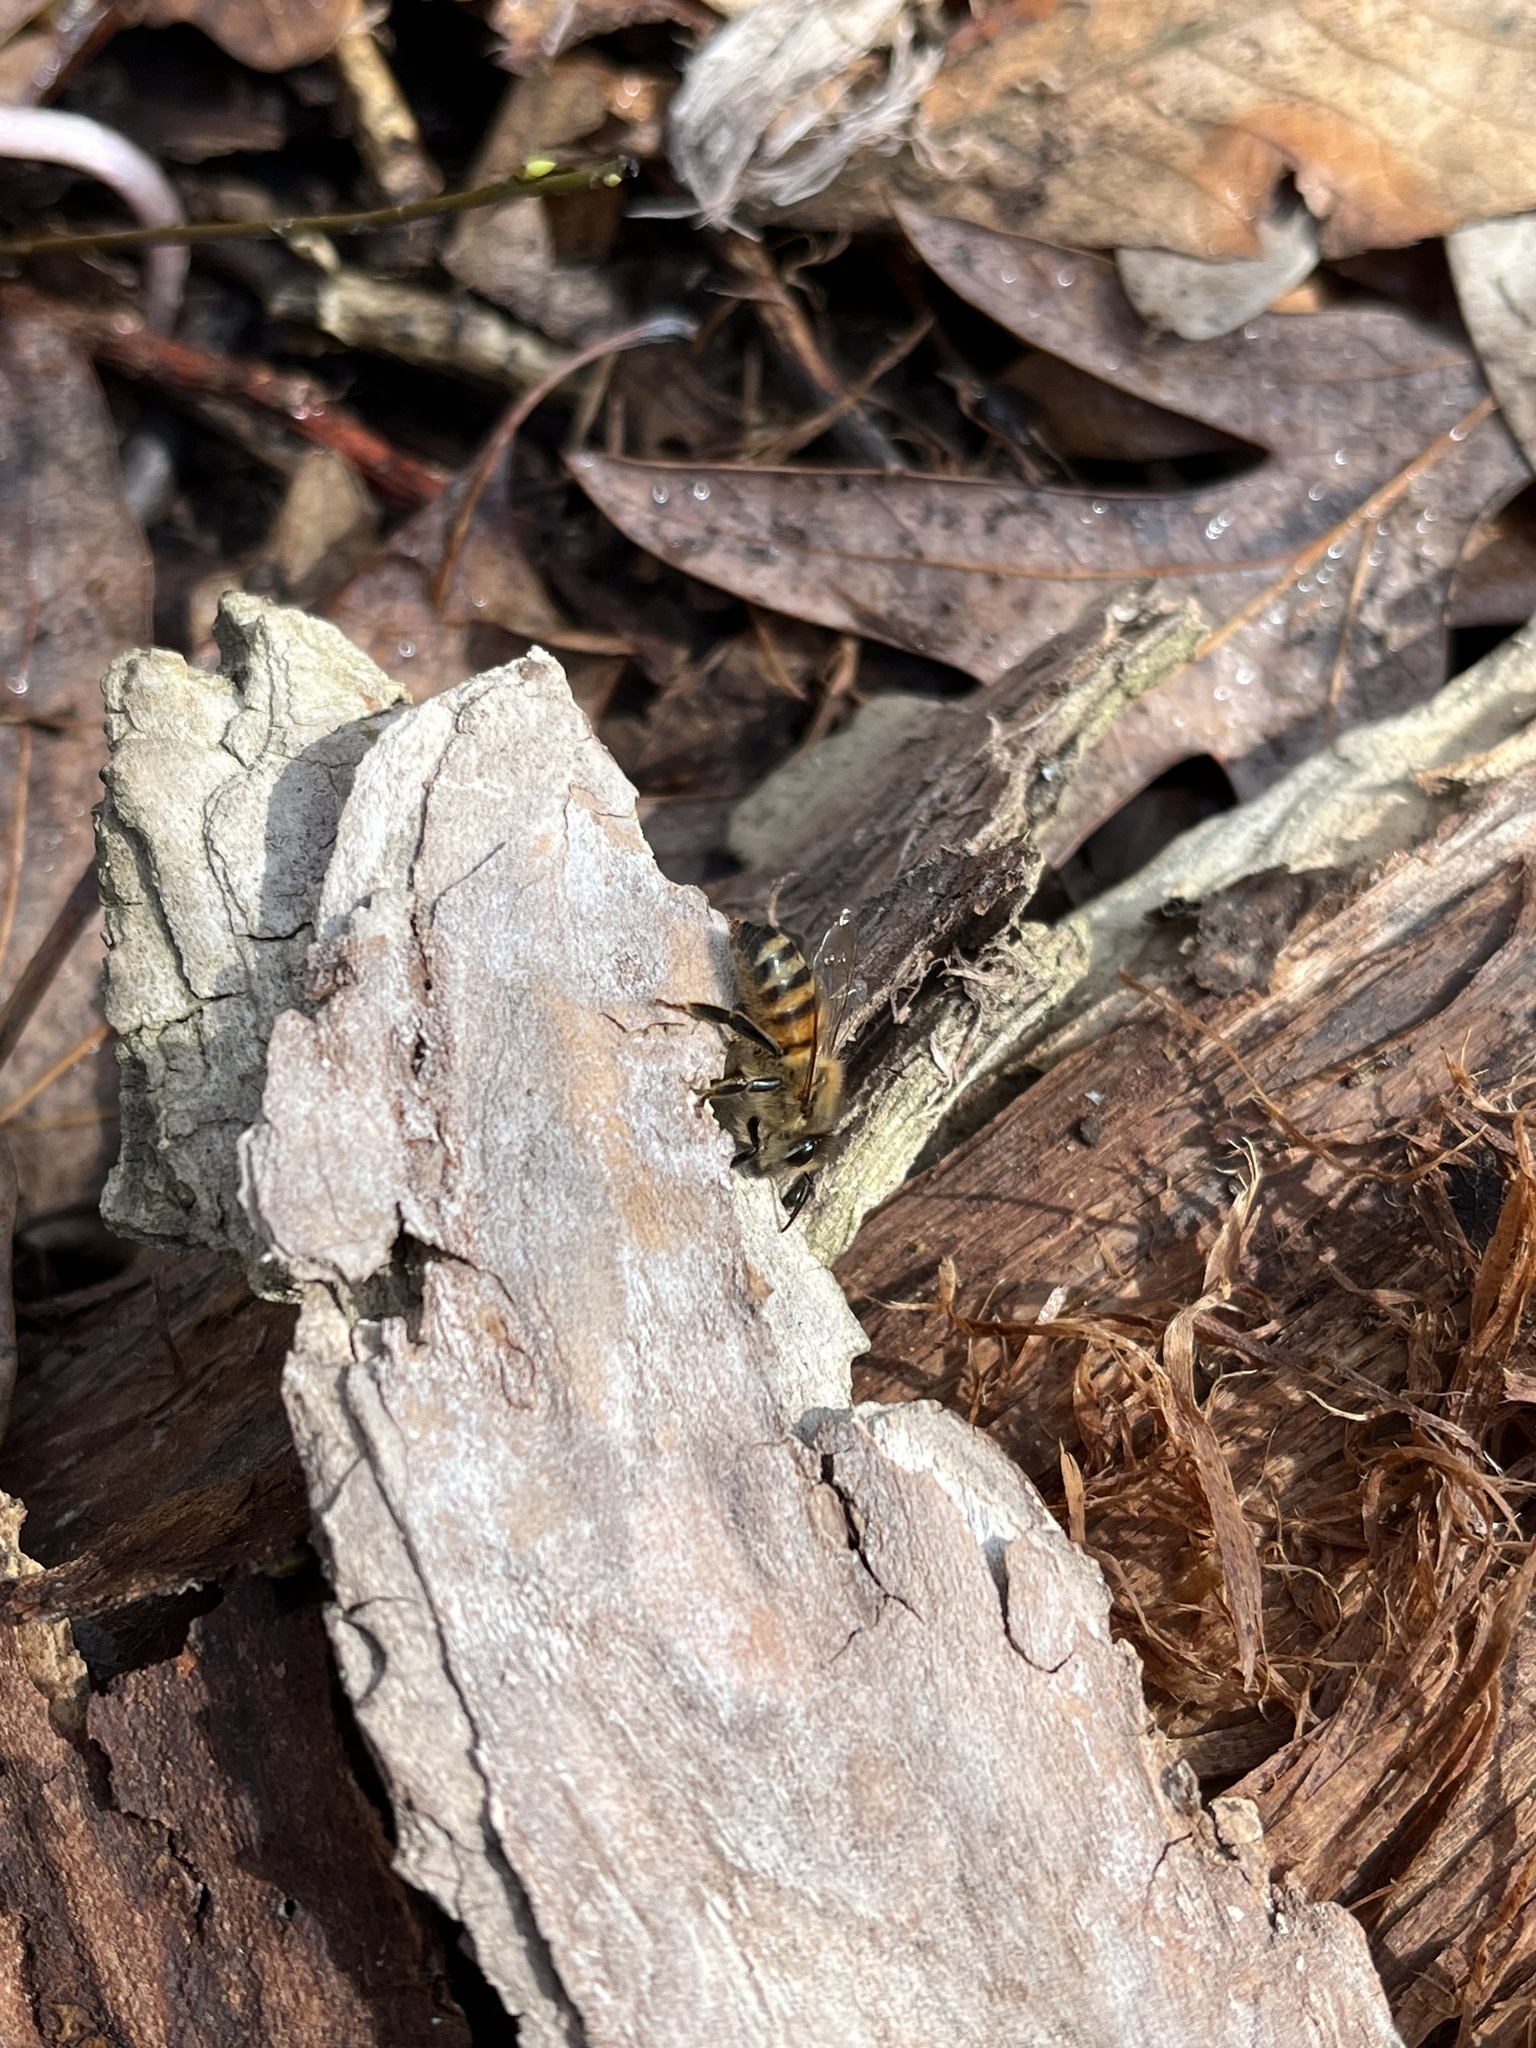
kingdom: Animalia
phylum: Arthropoda
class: Insecta
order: Hymenoptera
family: Apidae
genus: Apis
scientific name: Apis mellifera
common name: Honey bee
